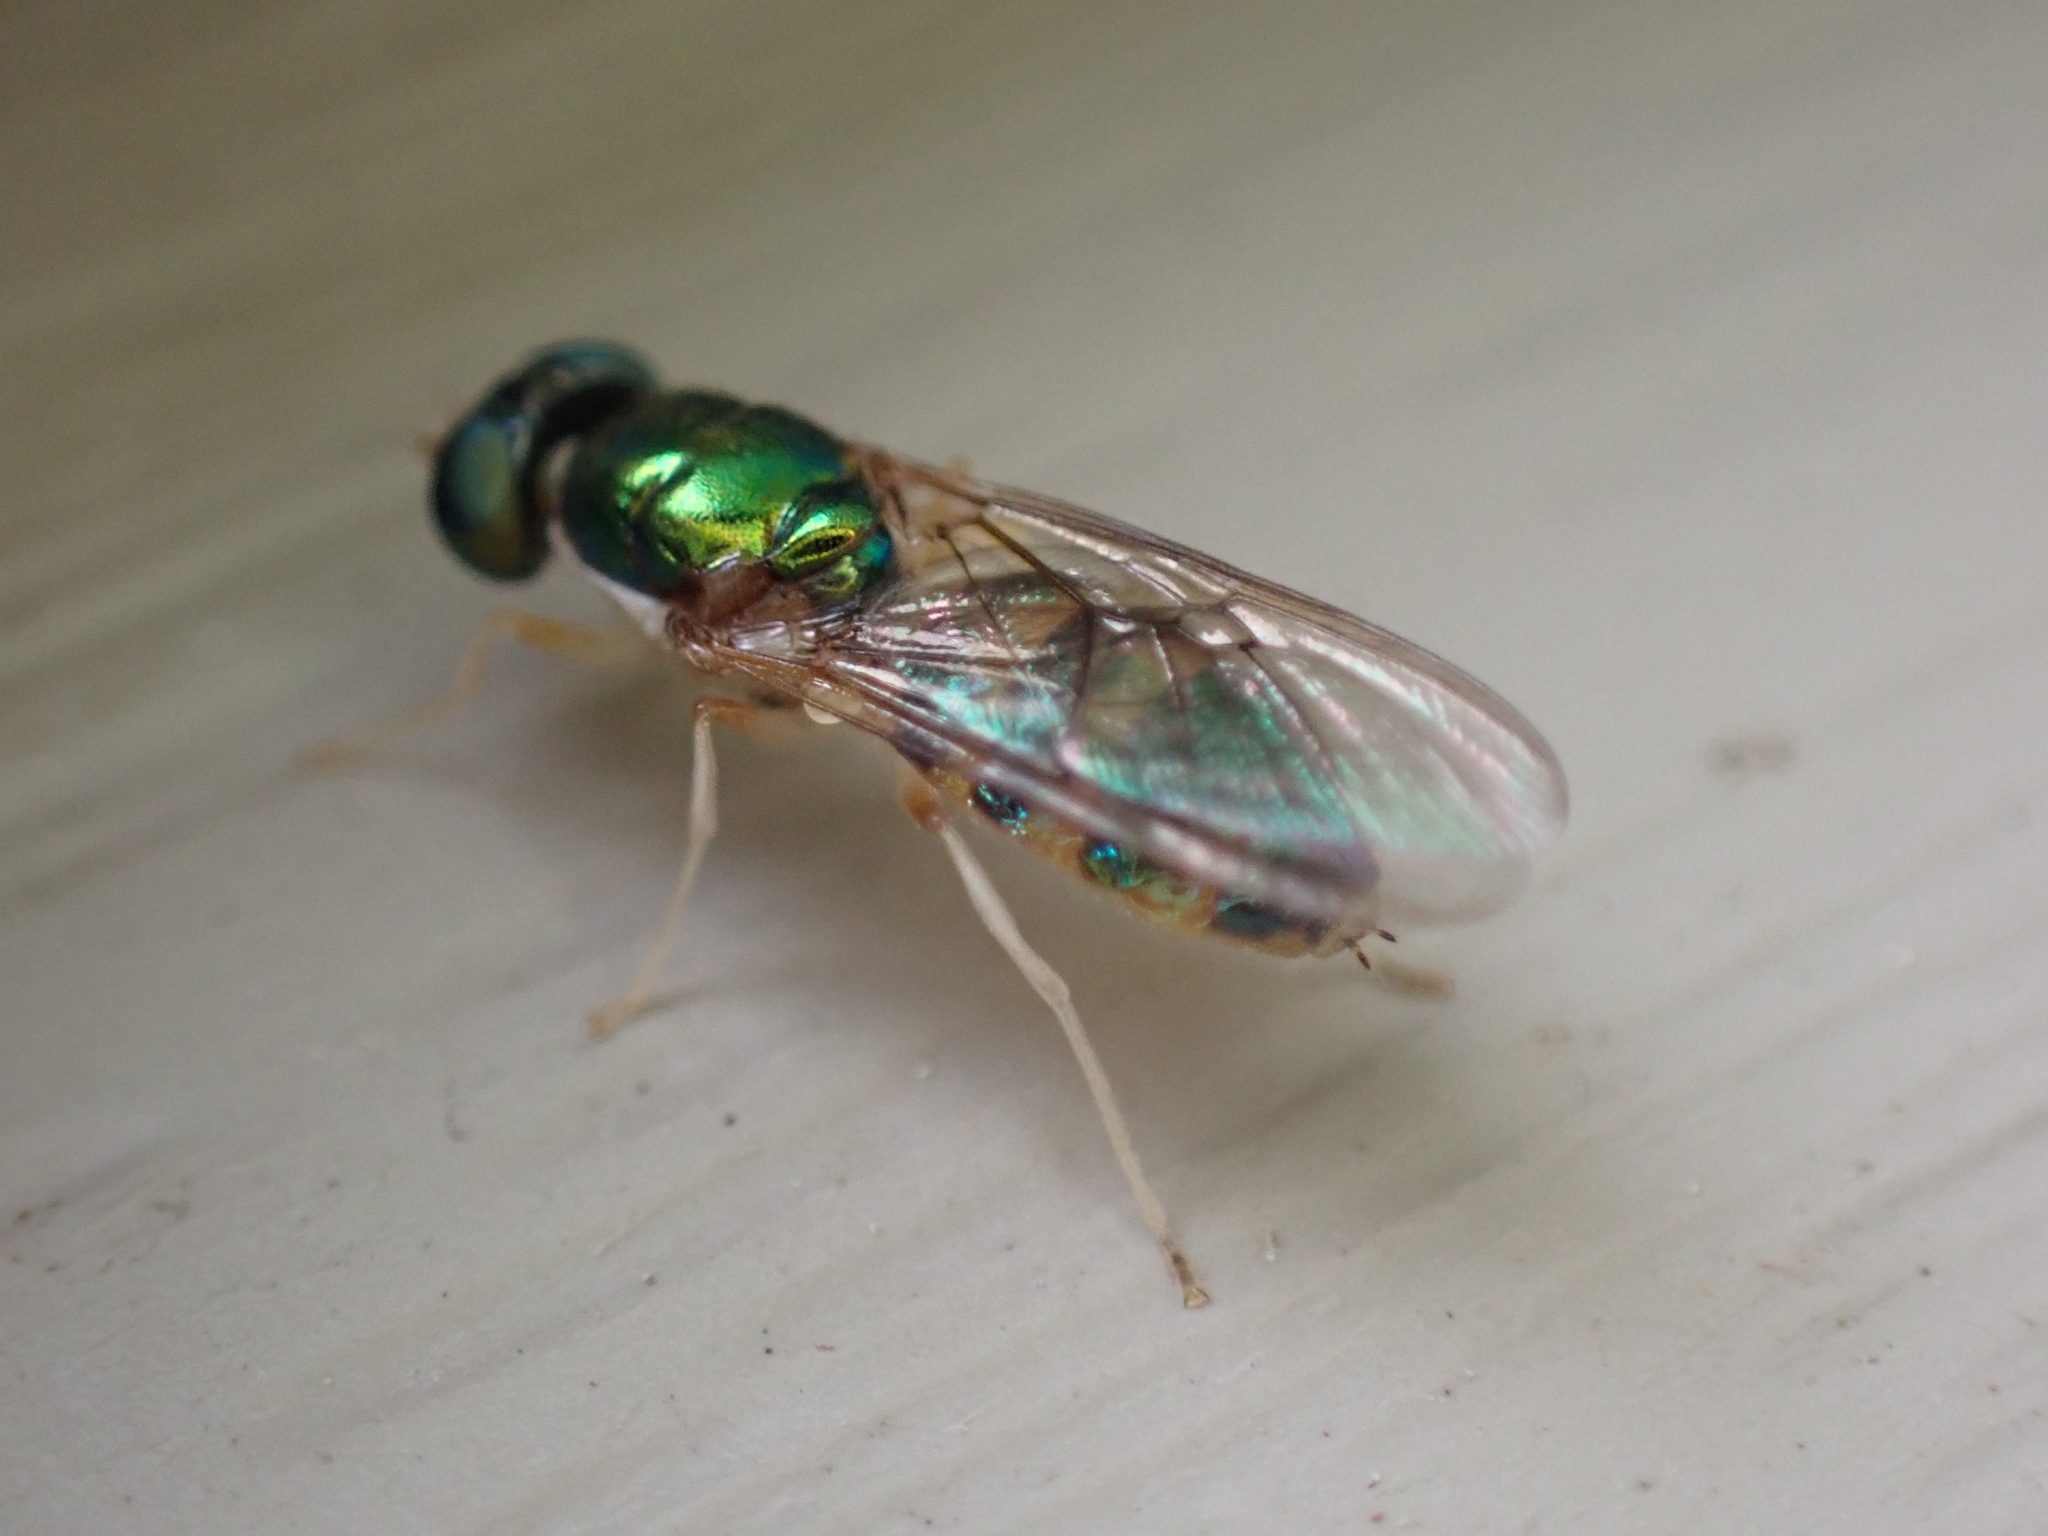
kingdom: Animalia
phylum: Arthropoda
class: Insecta
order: Diptera
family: Stratiomyidae
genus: Cephalochrysa
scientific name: Cephalochrysa canadensis
